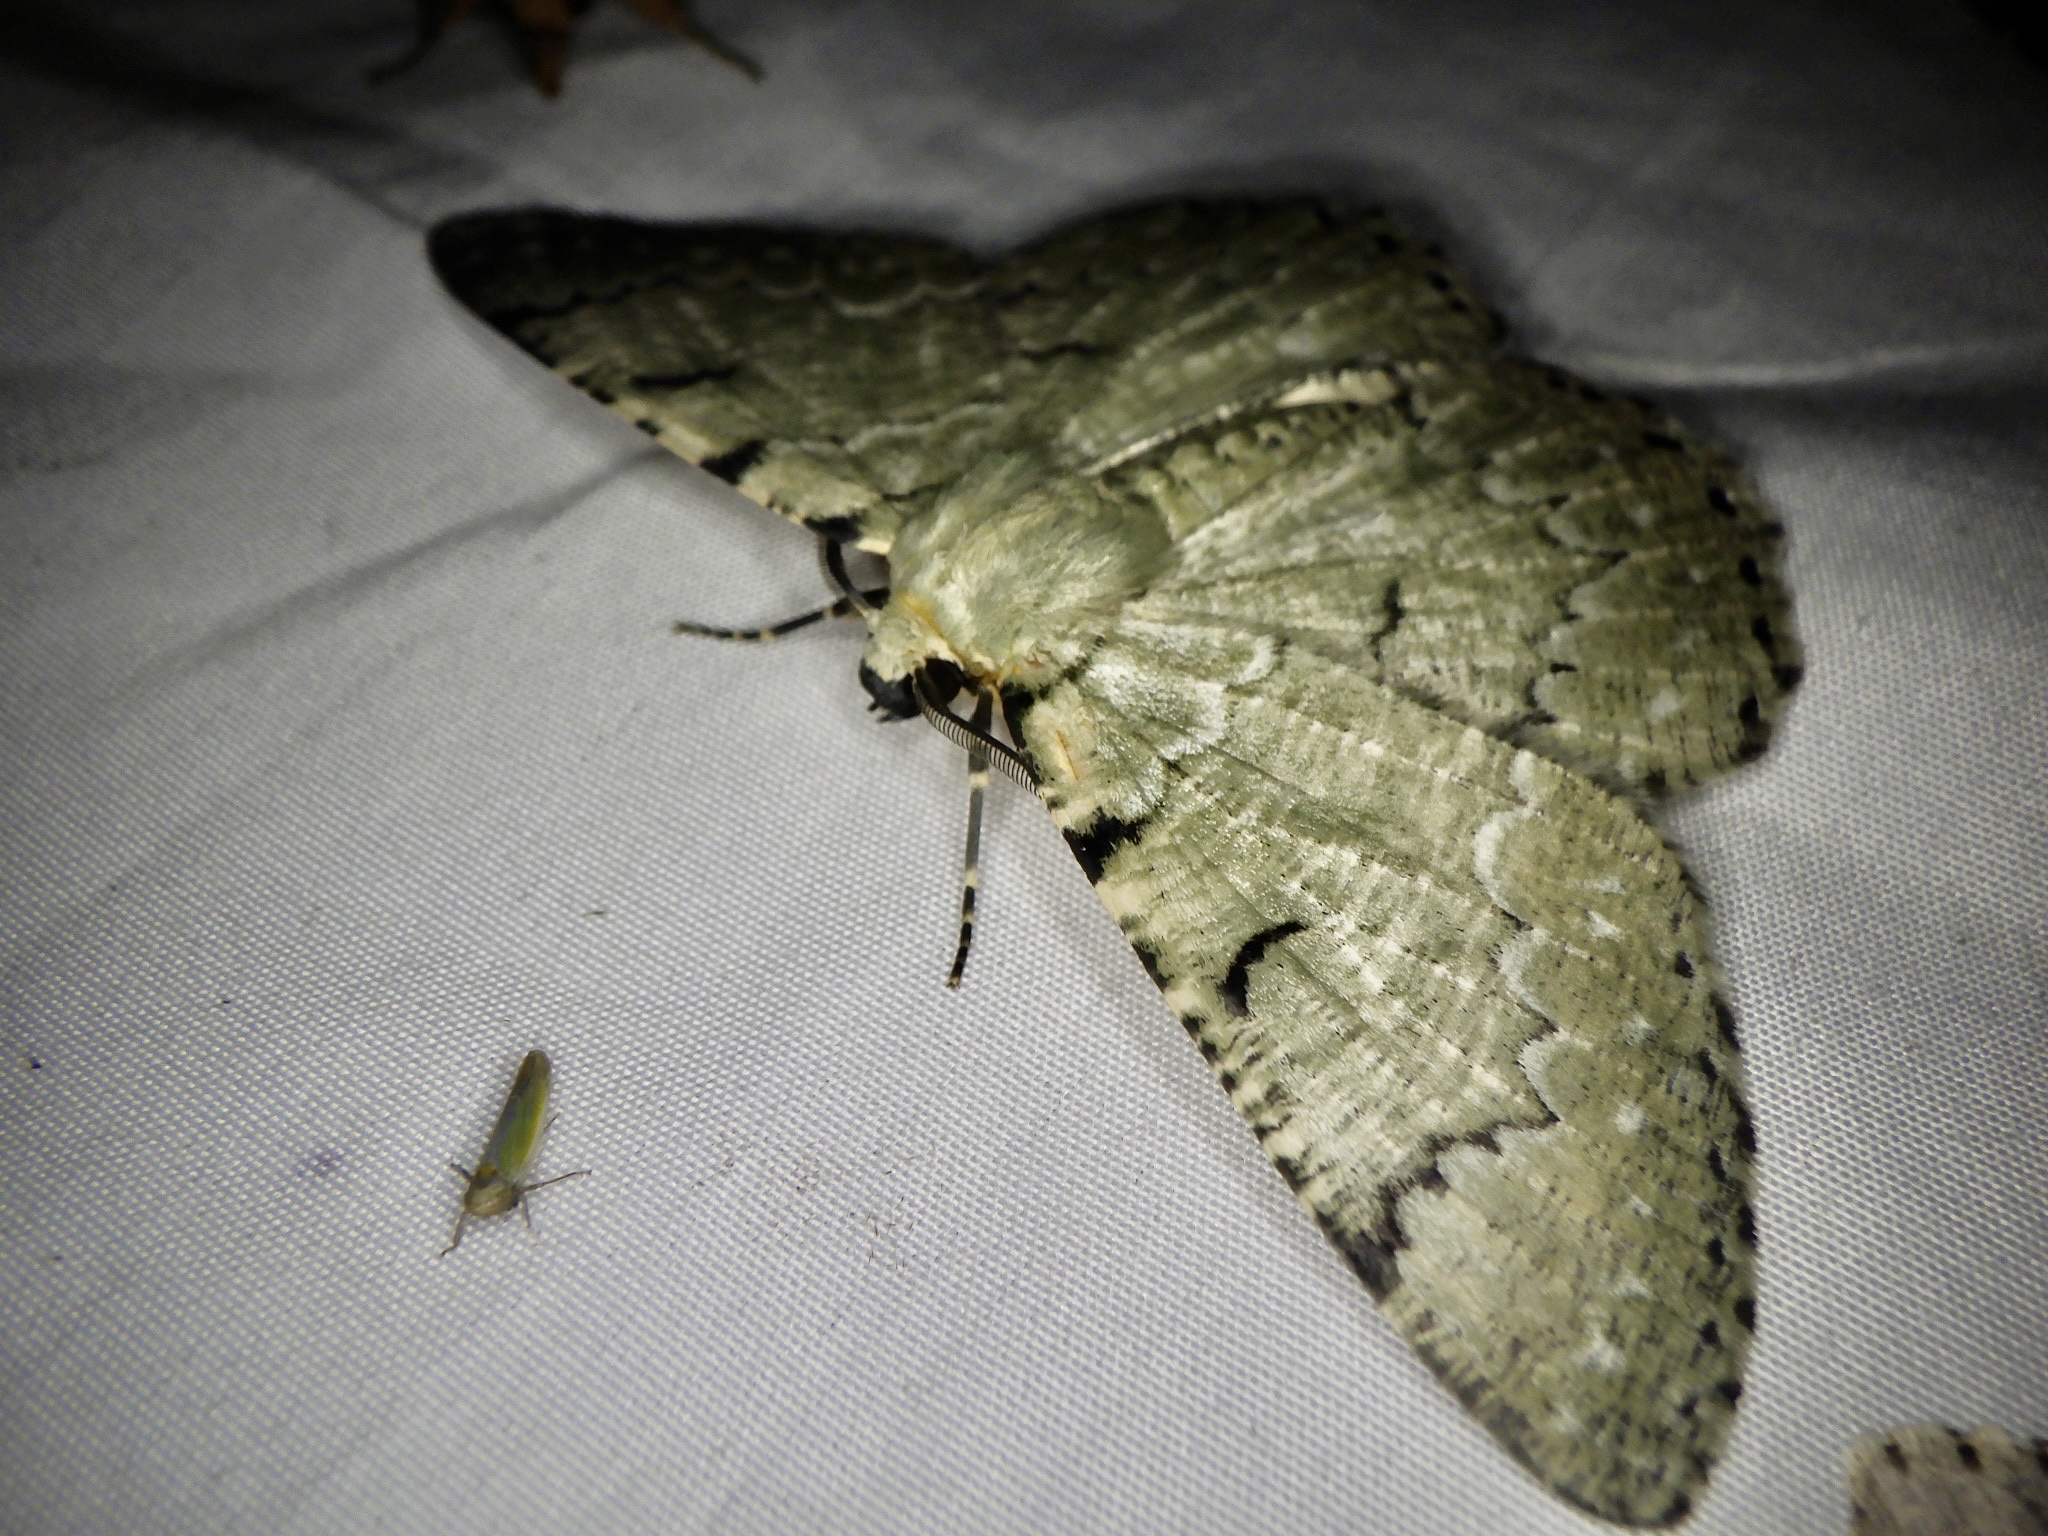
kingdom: Animalia
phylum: Arthropoda
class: Insecta
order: Lepidoptera
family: Geometridae
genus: Pachista
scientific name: Pachista superans
